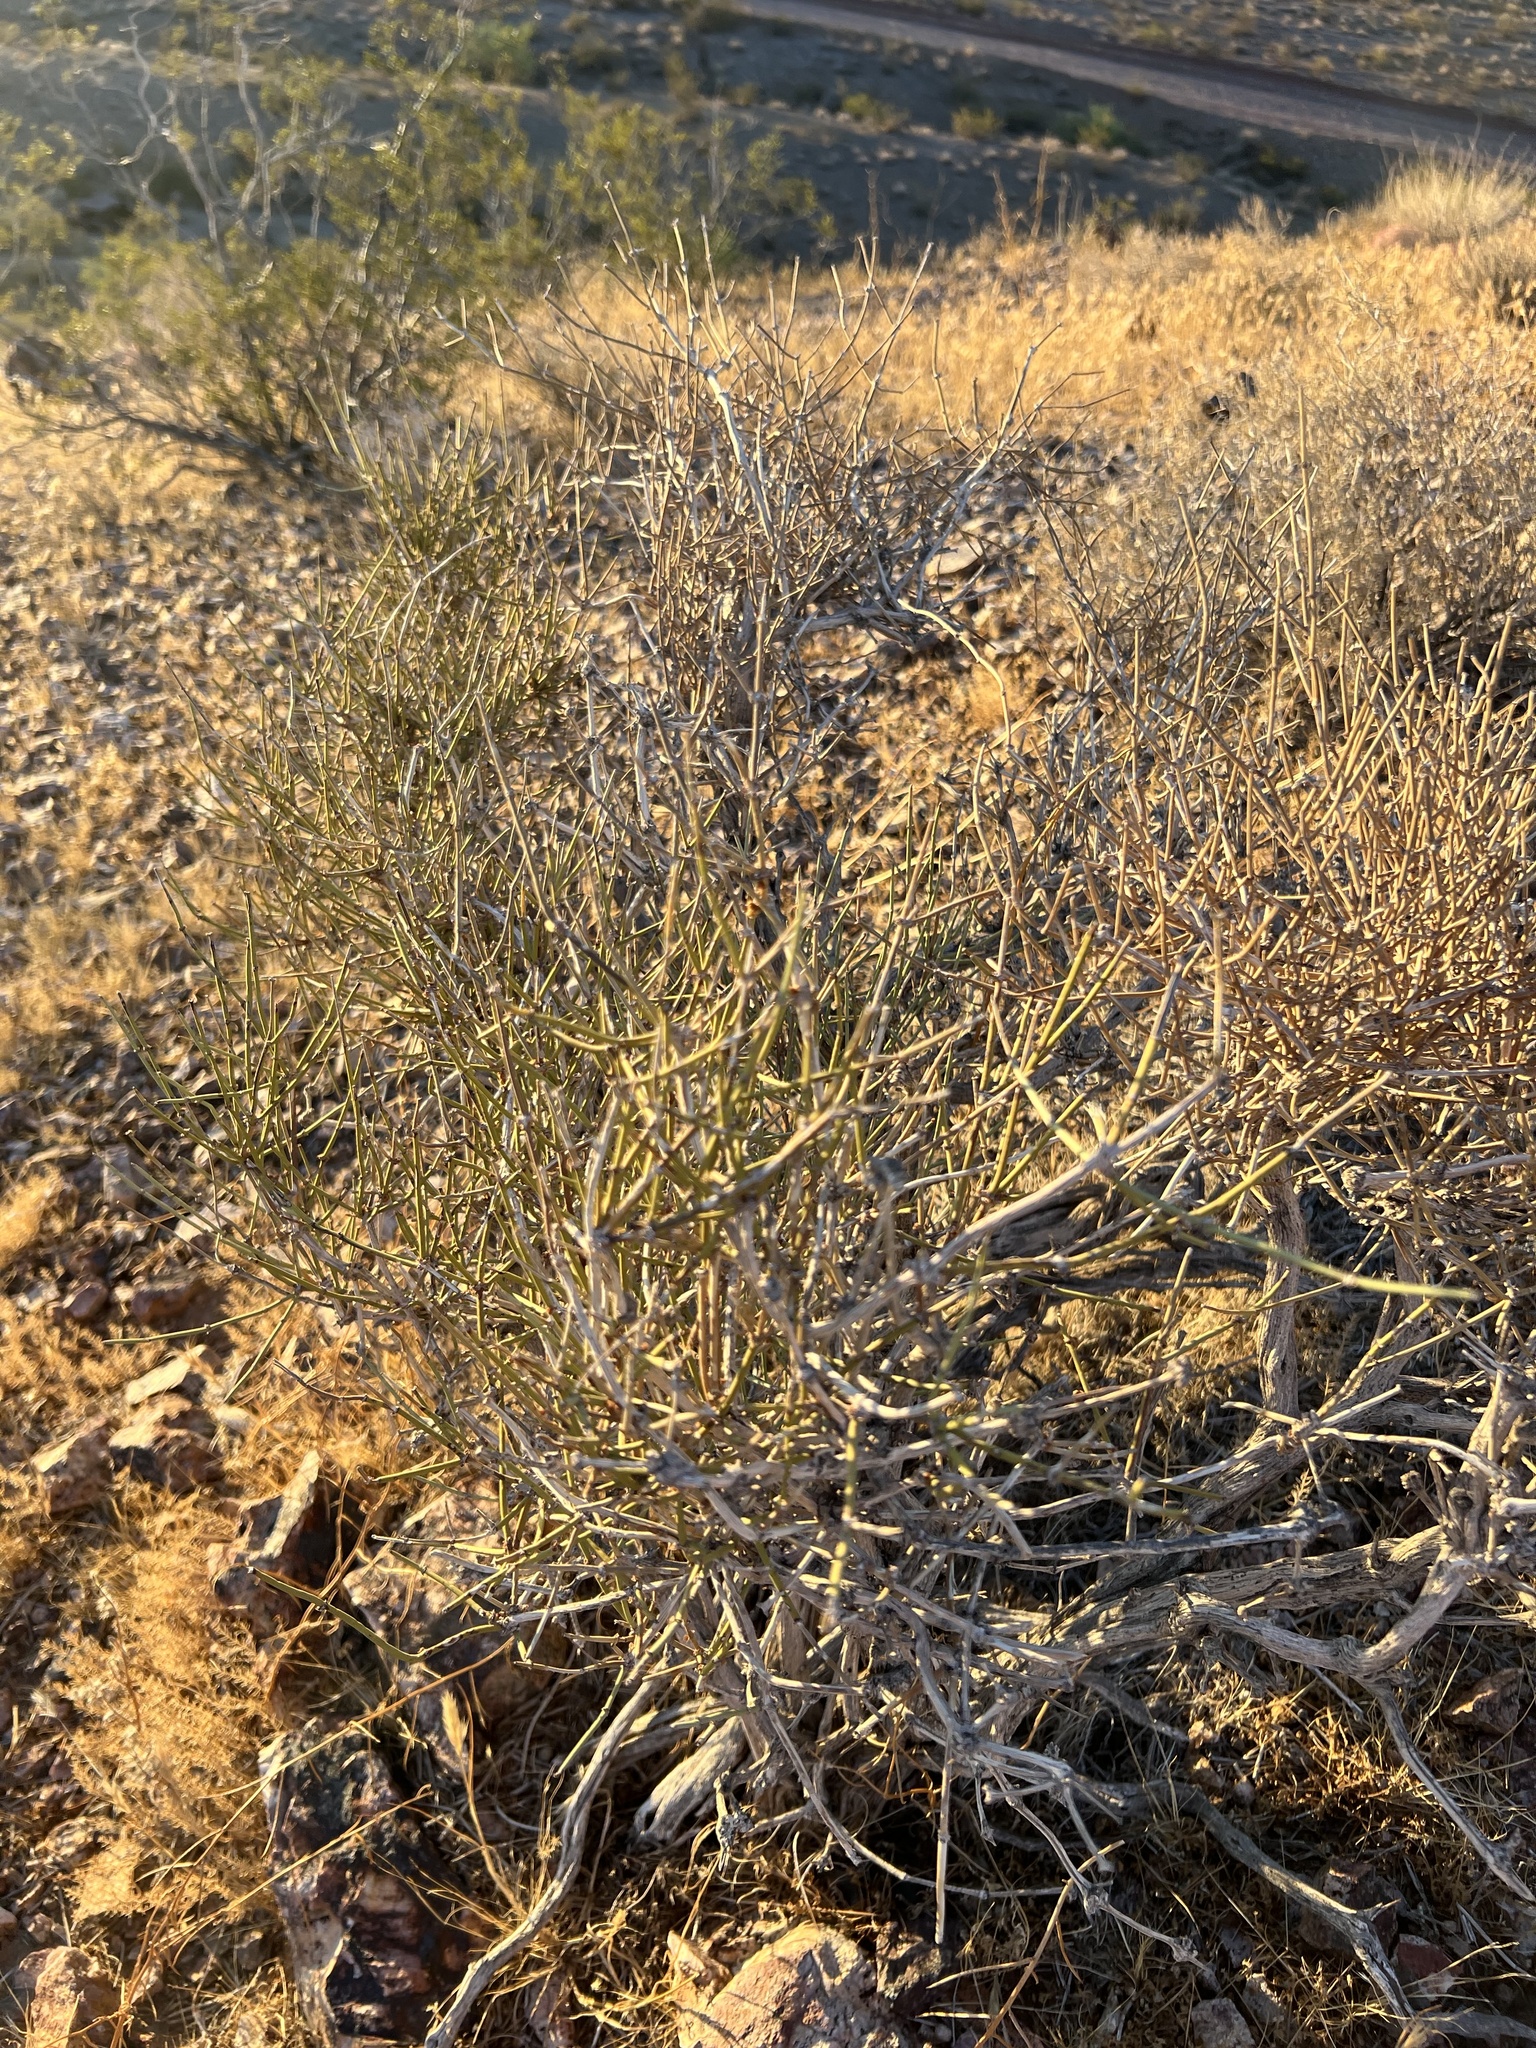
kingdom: Plantae
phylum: Tracheophyta
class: Gnetopsida
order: Ephedrales
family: Ephedraceae
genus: Ephedra
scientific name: Ephedra nevadensis
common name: Gray ephedra
